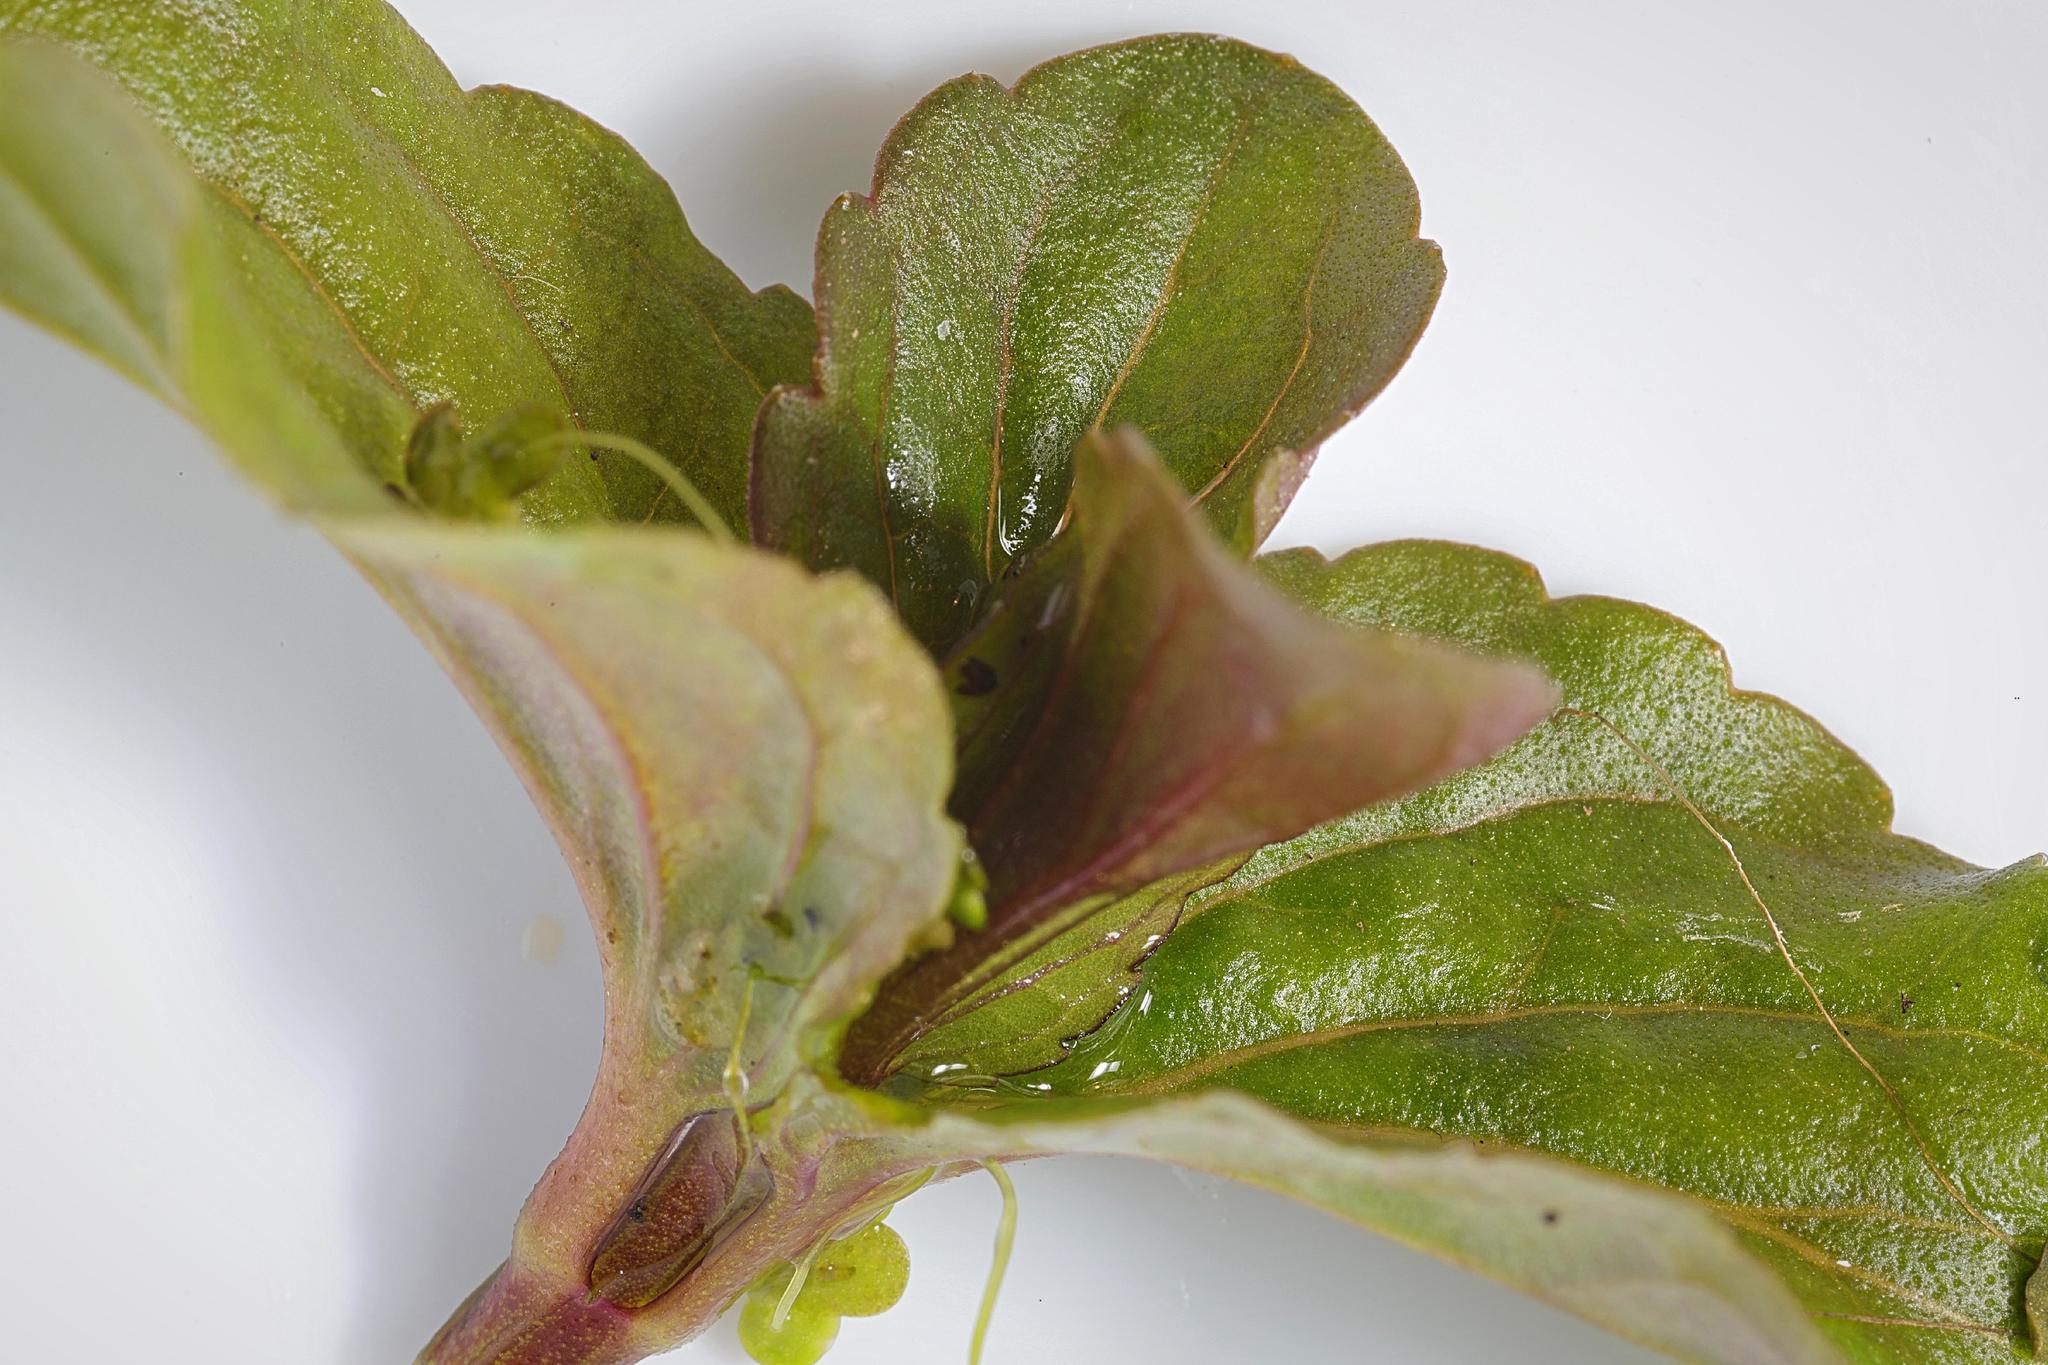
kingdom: Plantae
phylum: Tracheophyta
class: Magnoliopsida
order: Lamiales
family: Plantaginaceae
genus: Veronica
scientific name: Veronica beccabunga
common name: Brooklime
